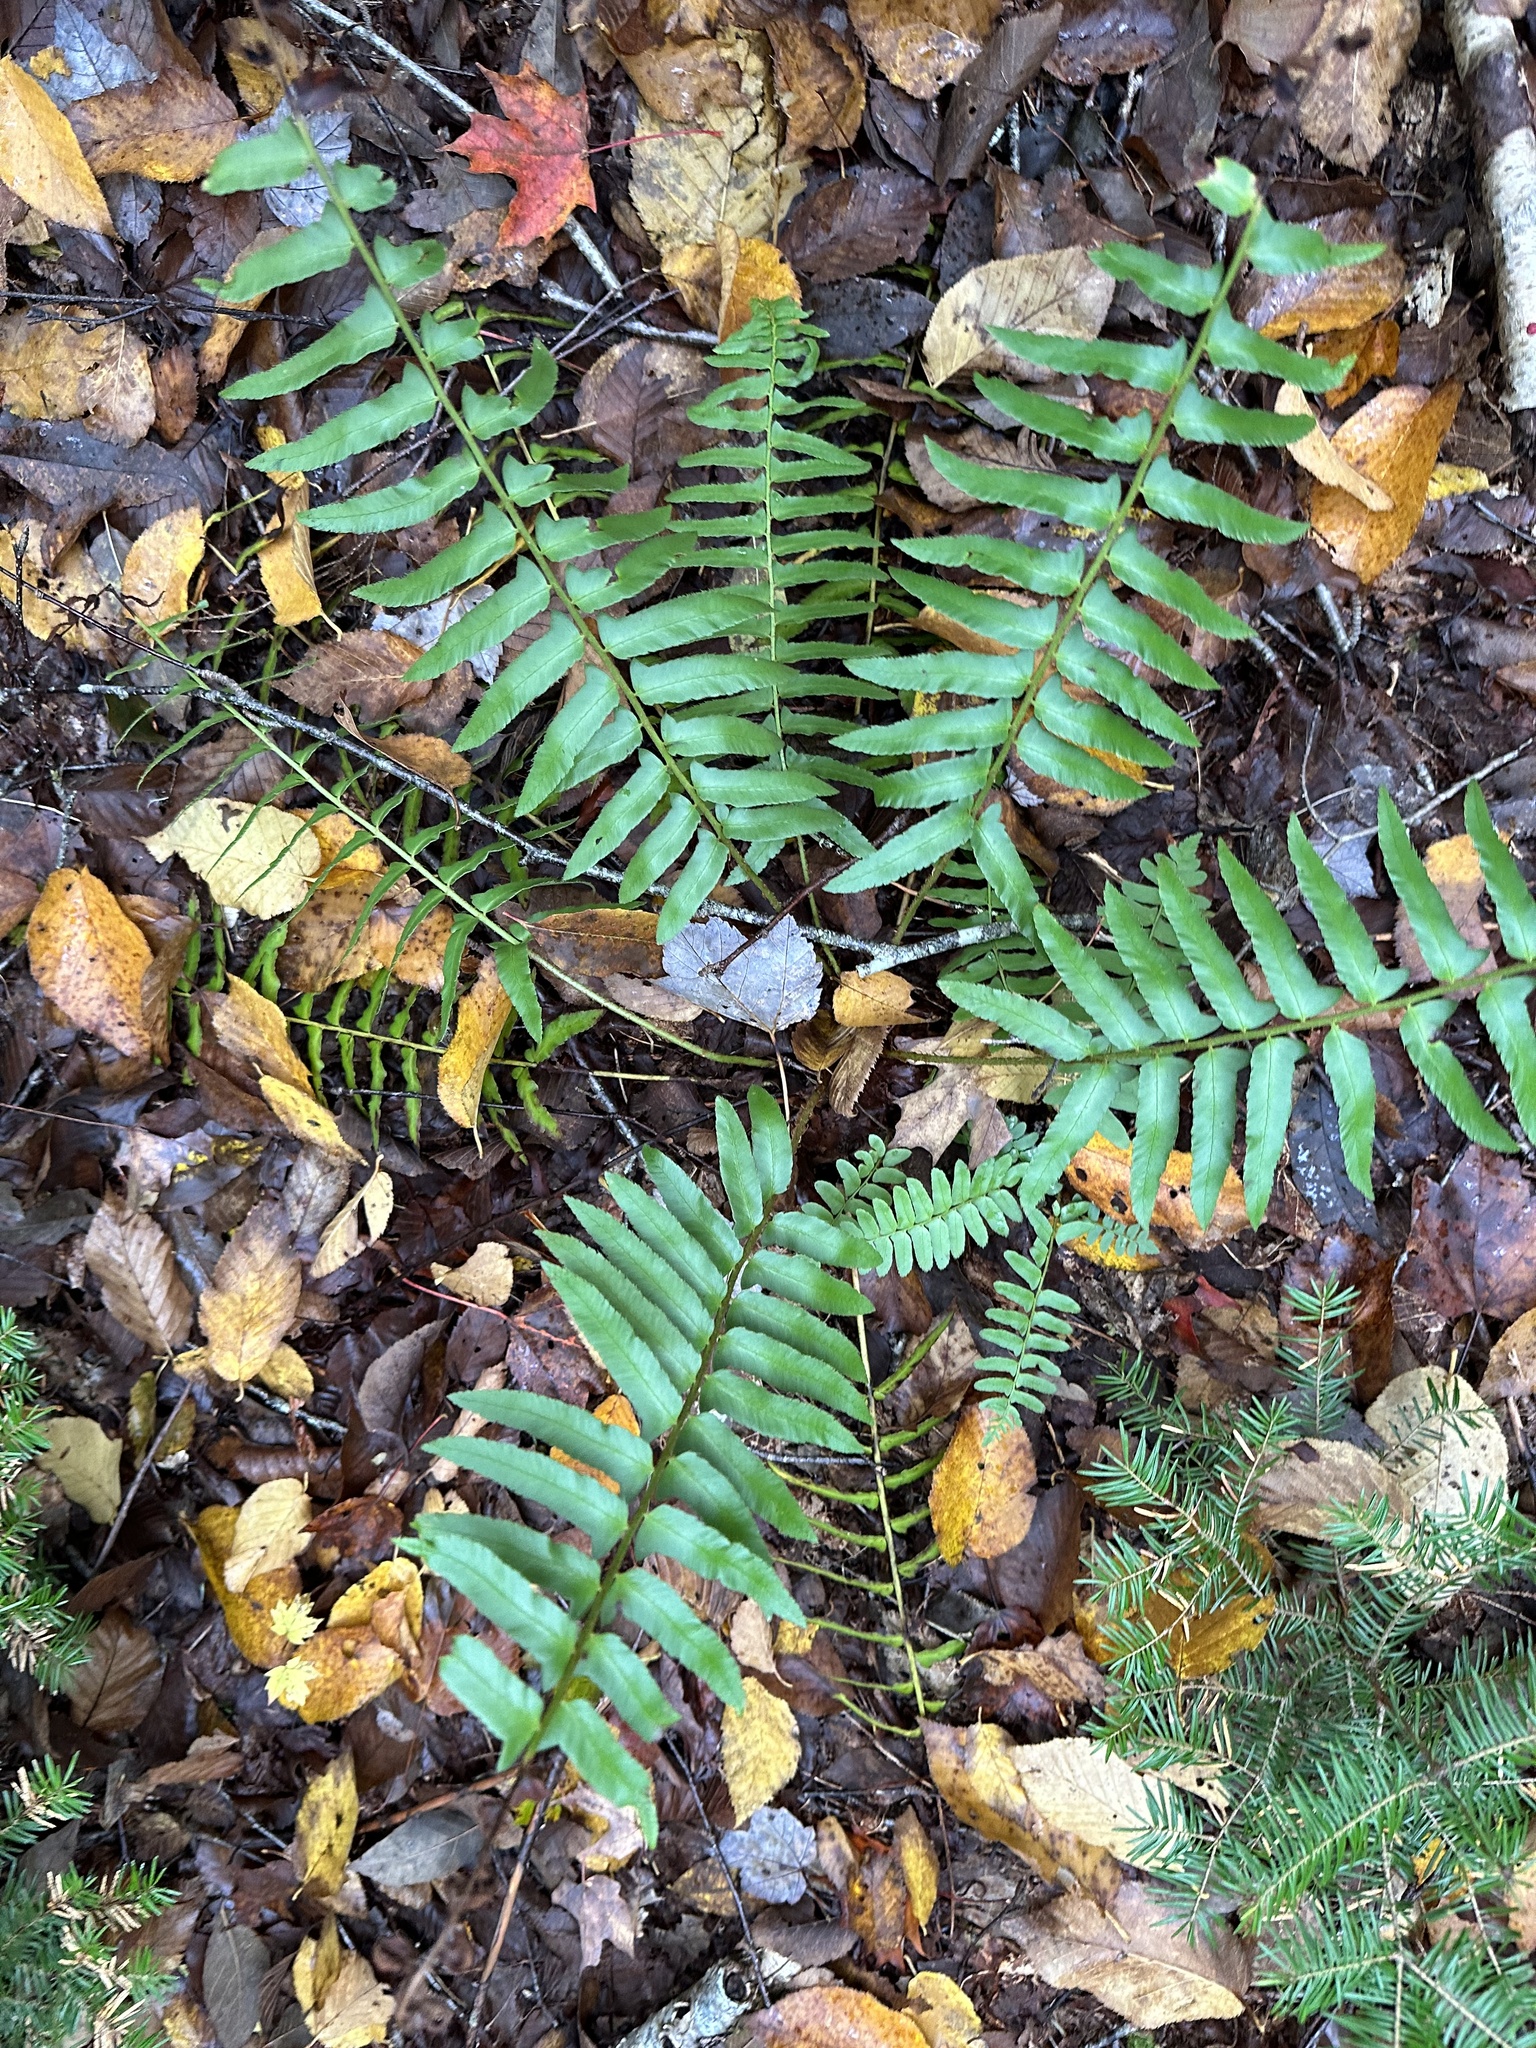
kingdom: Plantae
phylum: Tracheophyta
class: Polypodiopsida
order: Polypodiales
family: Dryopteridaceae
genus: Polystichum
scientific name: Polystichum acrostichoides
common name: Christmas fern
